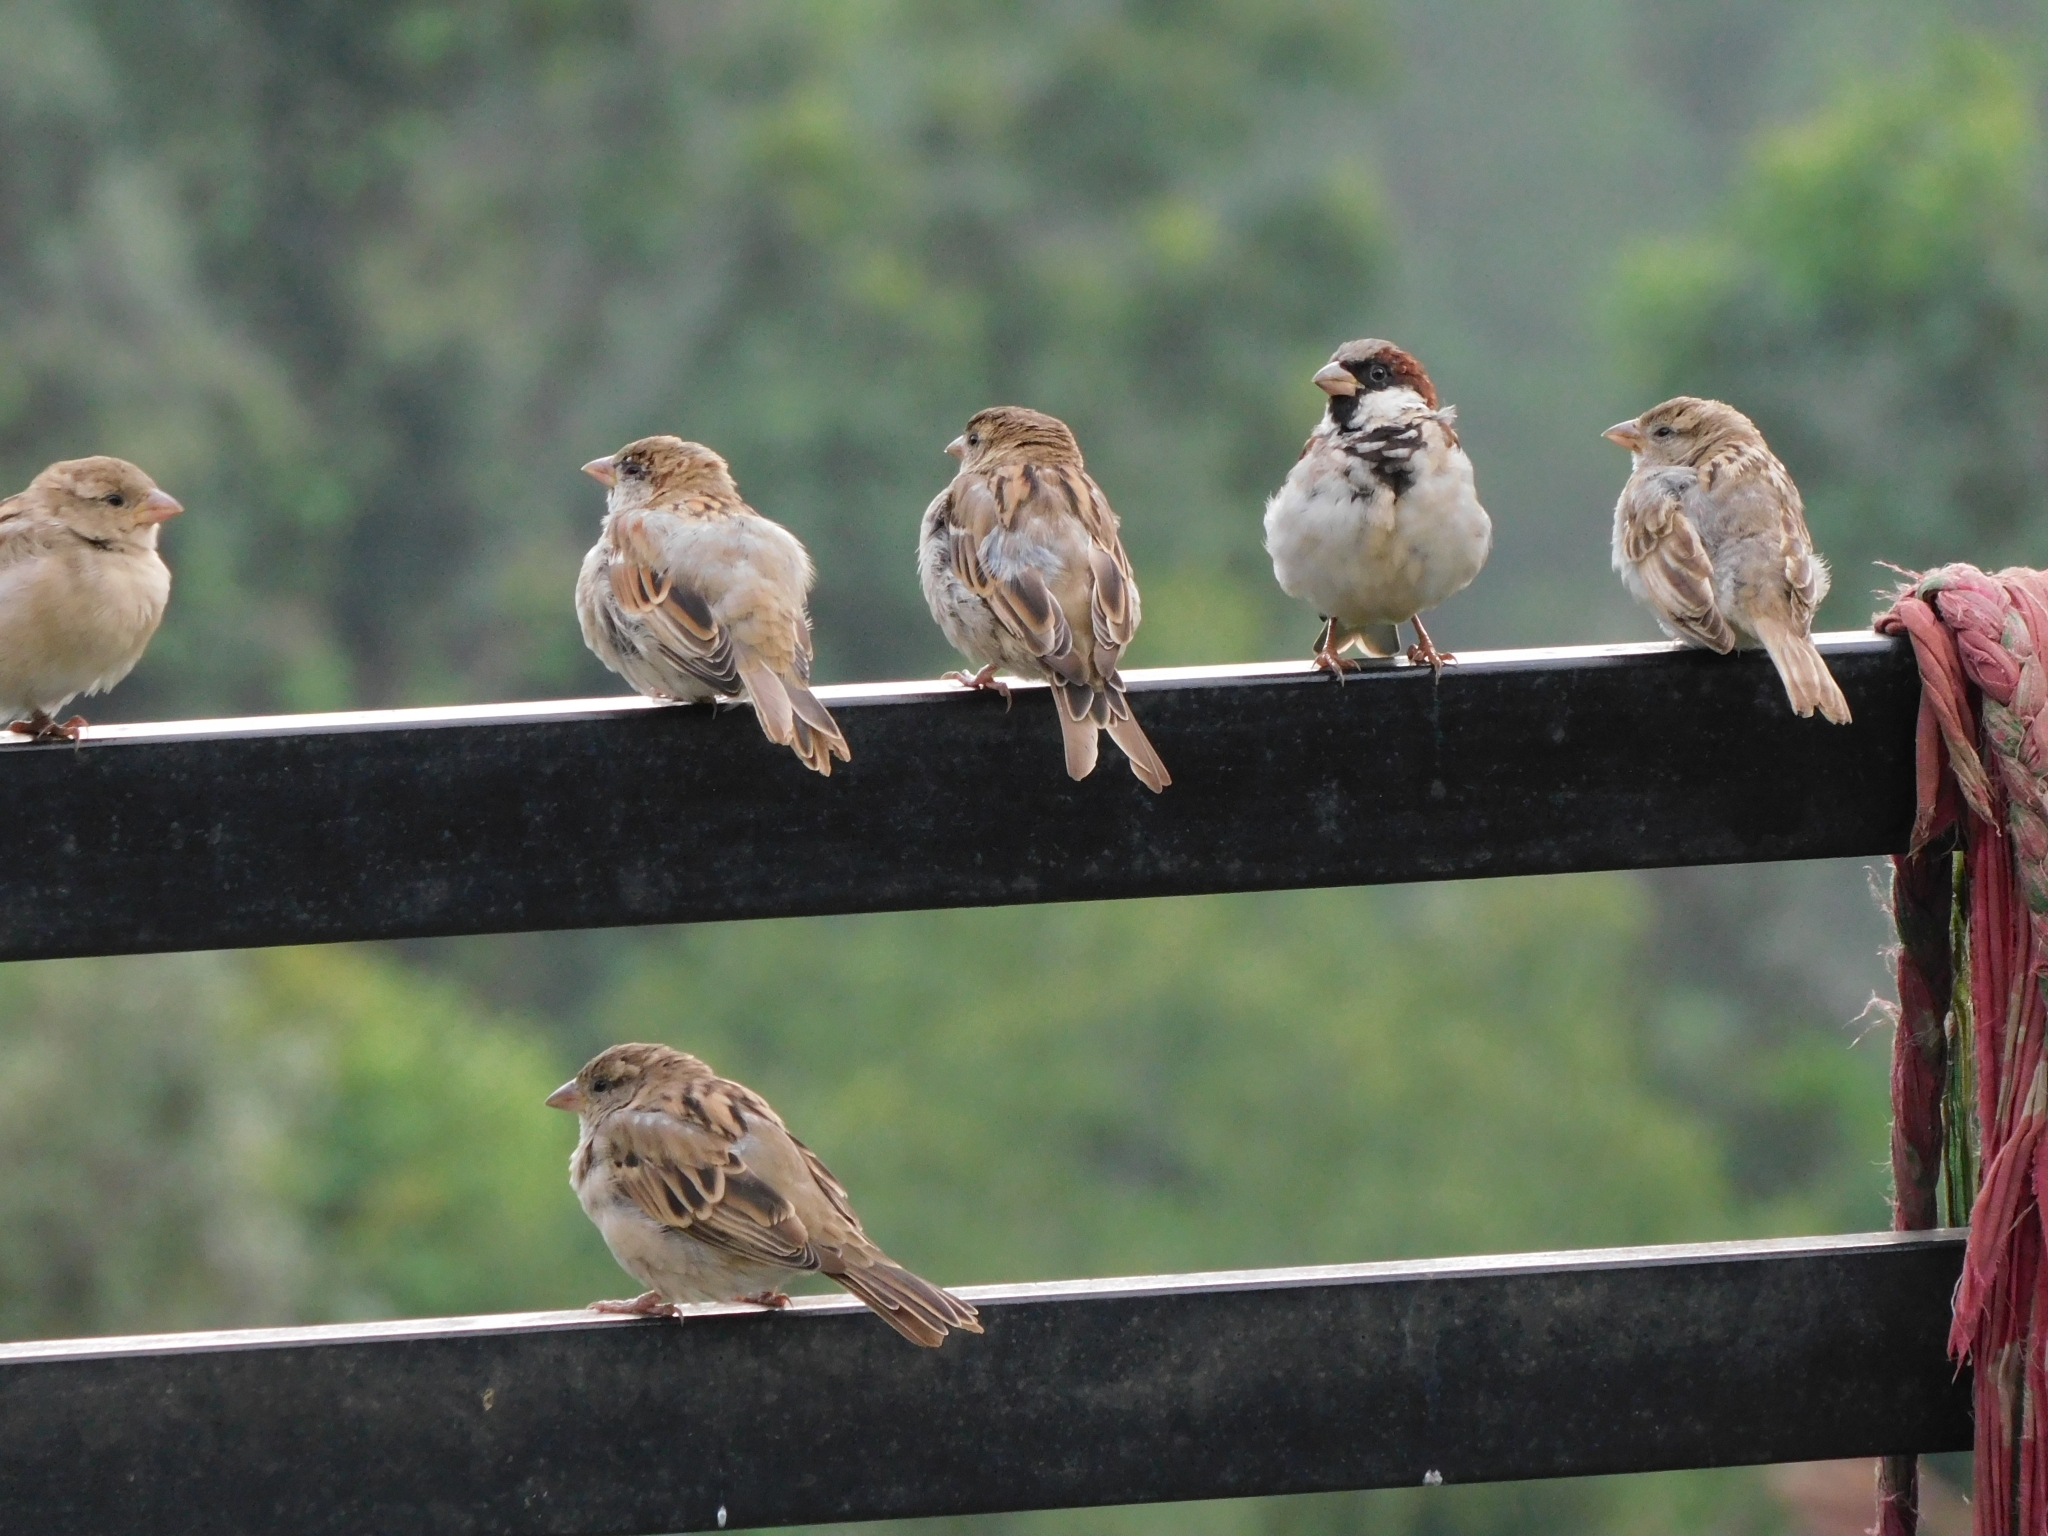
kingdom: Animalia
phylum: Chordata
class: Aves
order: Passeriformes
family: Passeridae
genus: Passer
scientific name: Passer domesticus
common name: House sparrow
